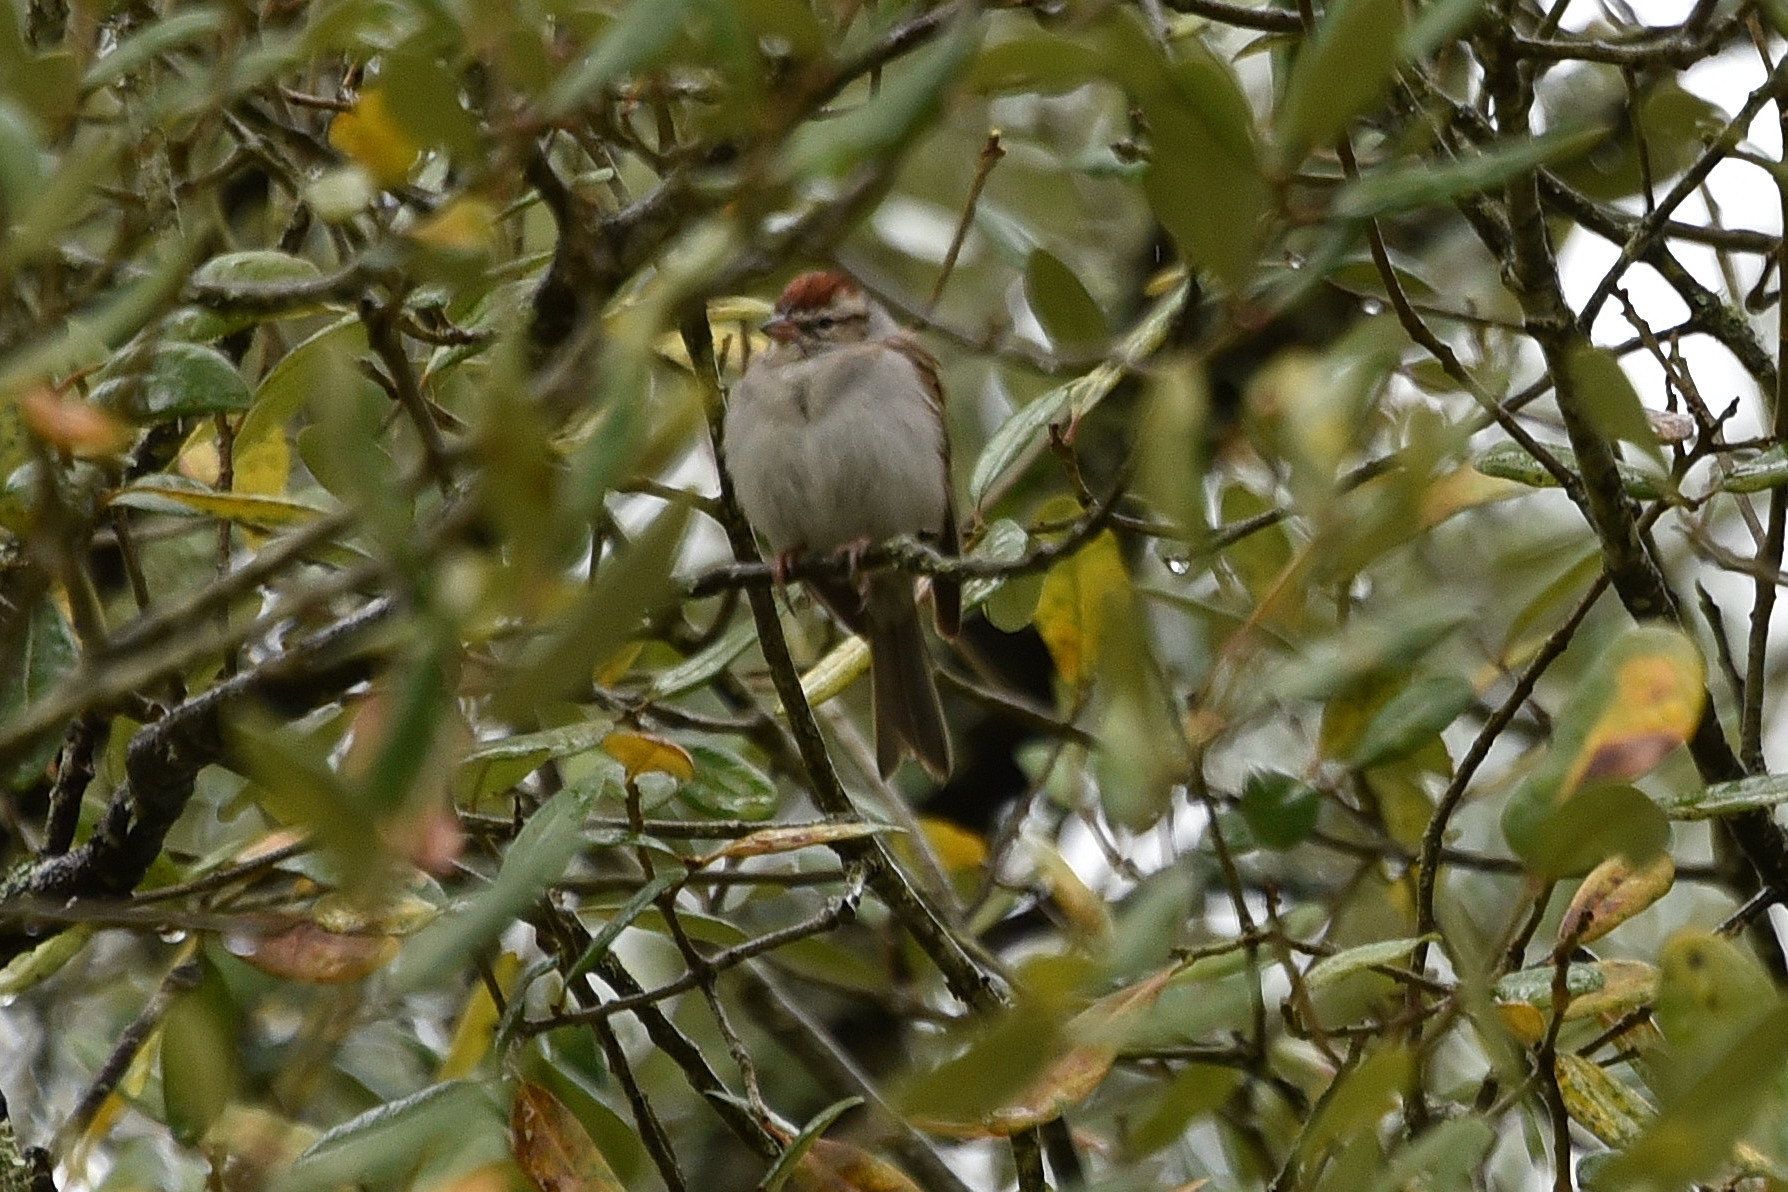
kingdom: Animalia
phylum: Chordata
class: Aves
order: Passeriformes
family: Passerellidae
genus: Spizella
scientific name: Spizella passerina
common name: Chipping sparrow
